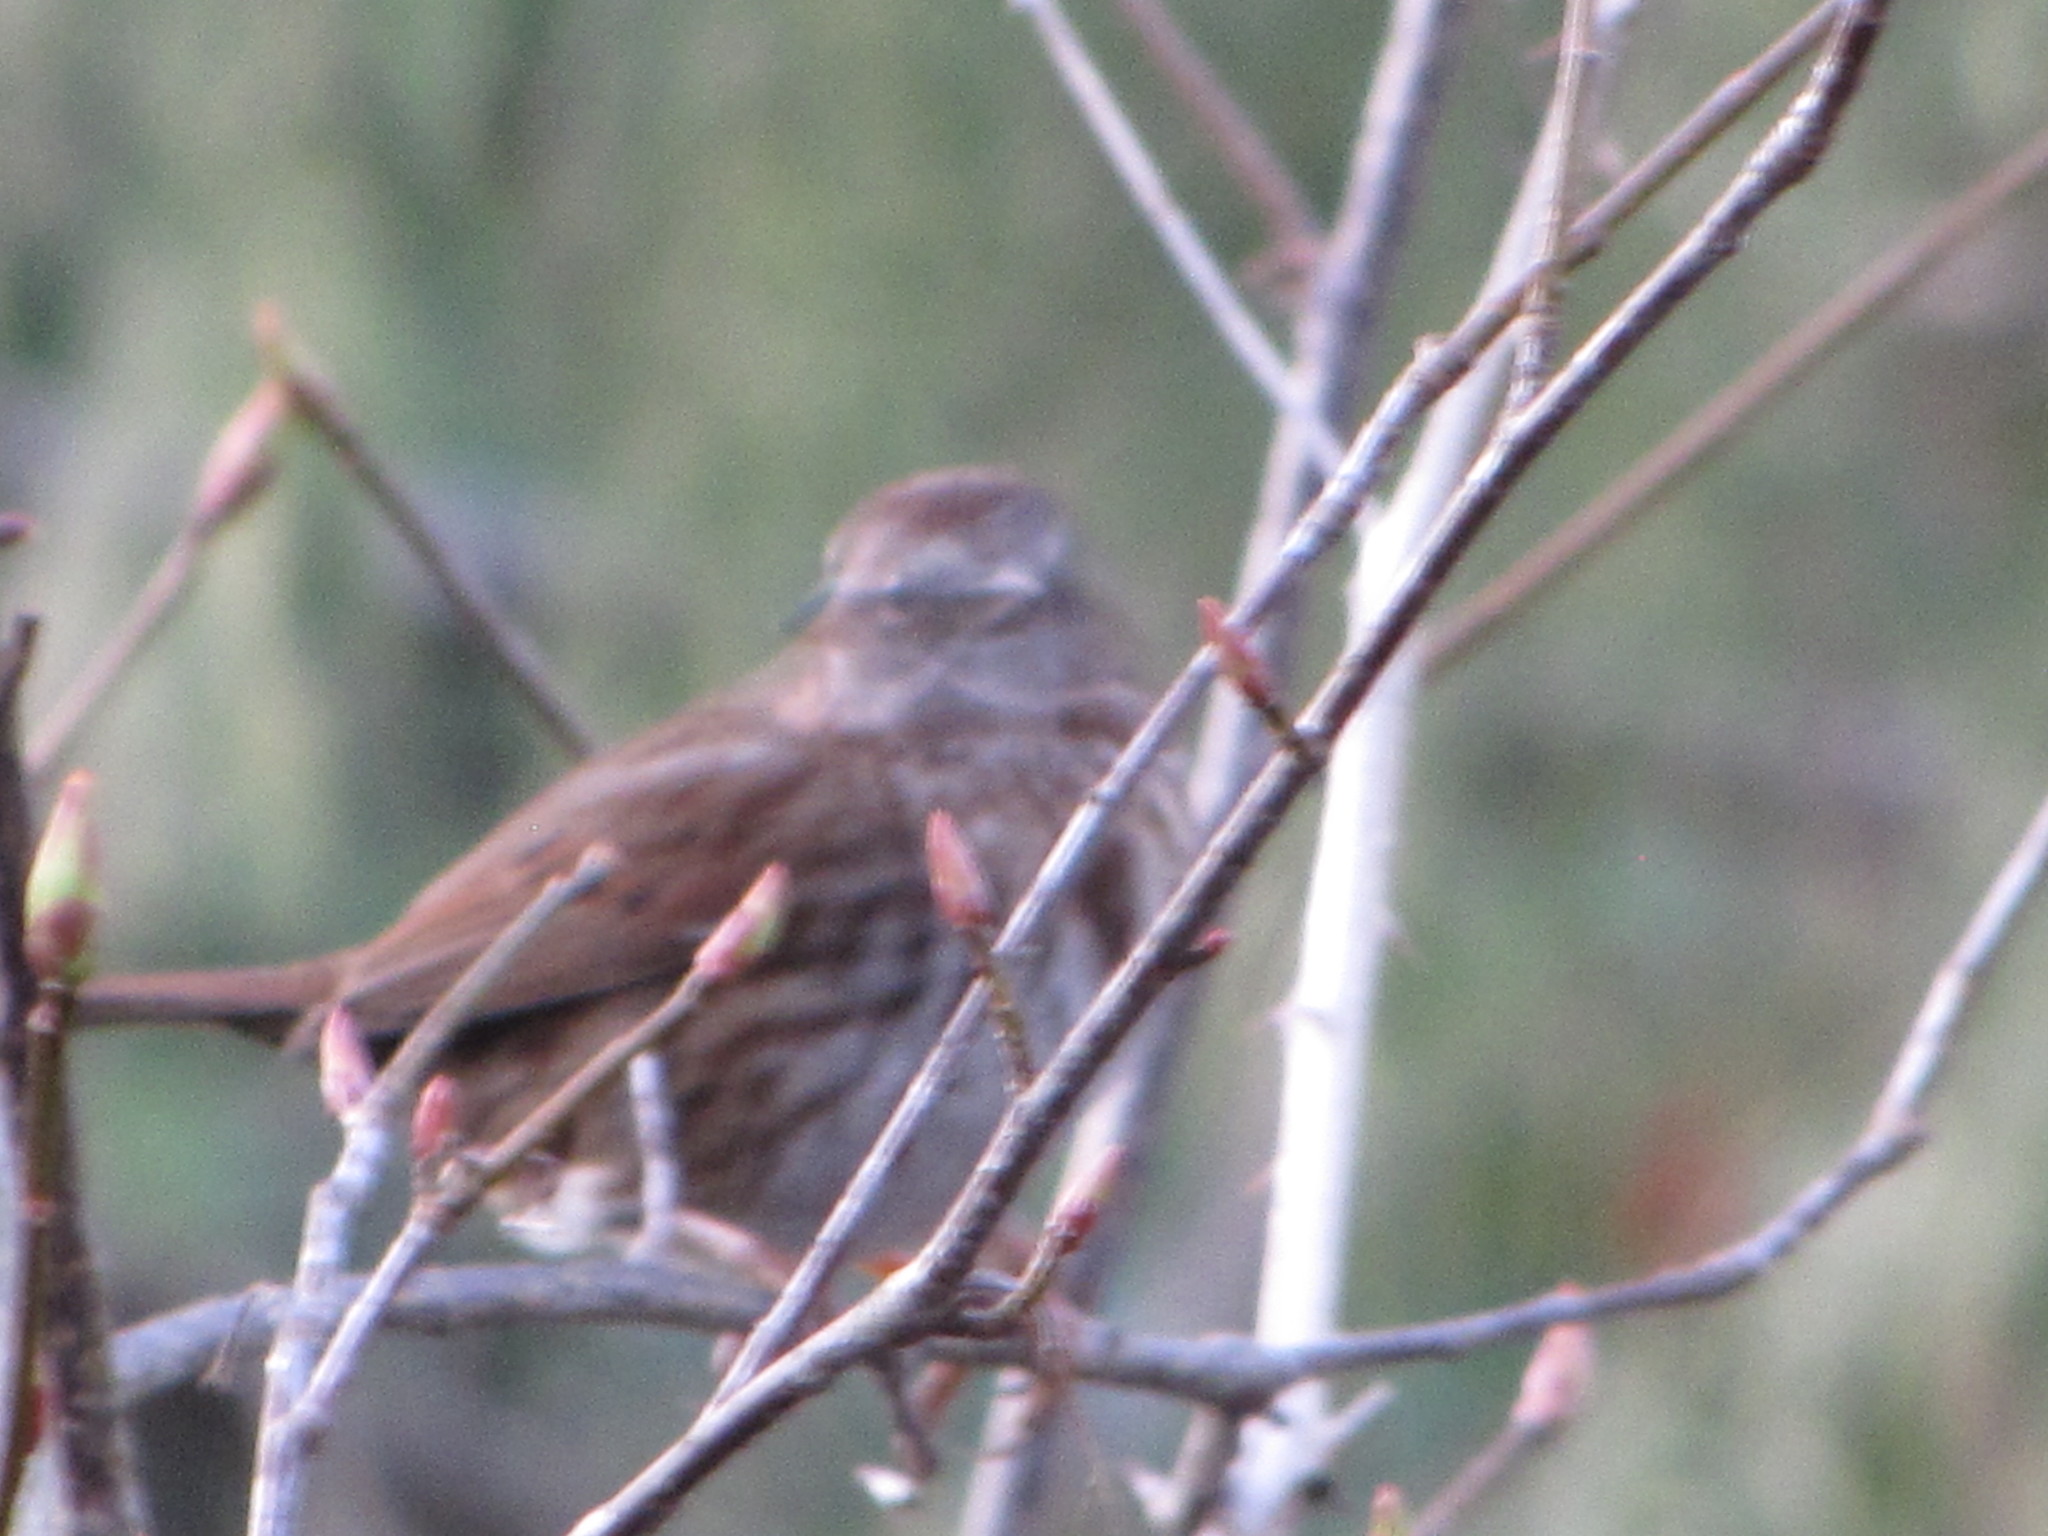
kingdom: Animalia
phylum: Chordata
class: Aves
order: Passeriformes
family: Passerellidae
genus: Melospiza
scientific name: Melospiza melodia
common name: Song sparrow
